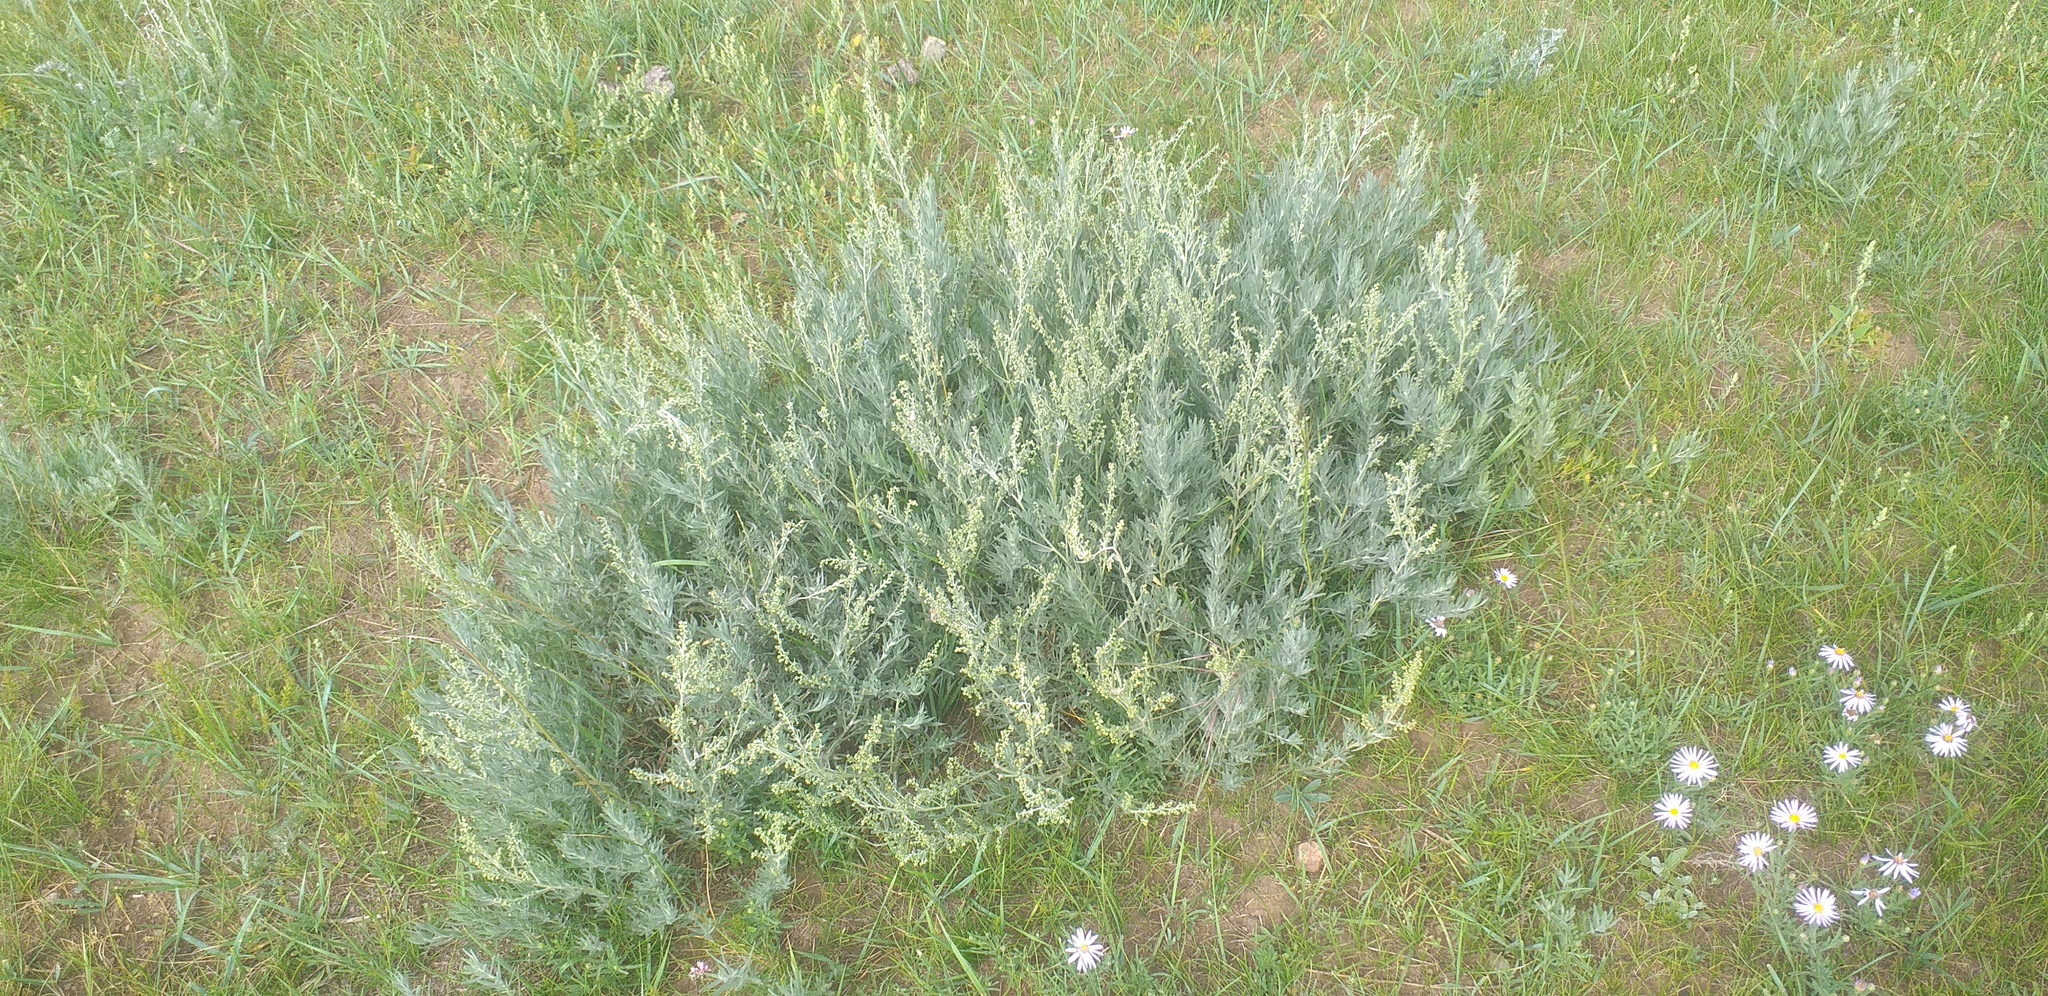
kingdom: Plantae
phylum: Tracheophyta
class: Magnoliopsida
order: Asterales
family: Asteraceae
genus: Artemisia
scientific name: Artemisia glauca
